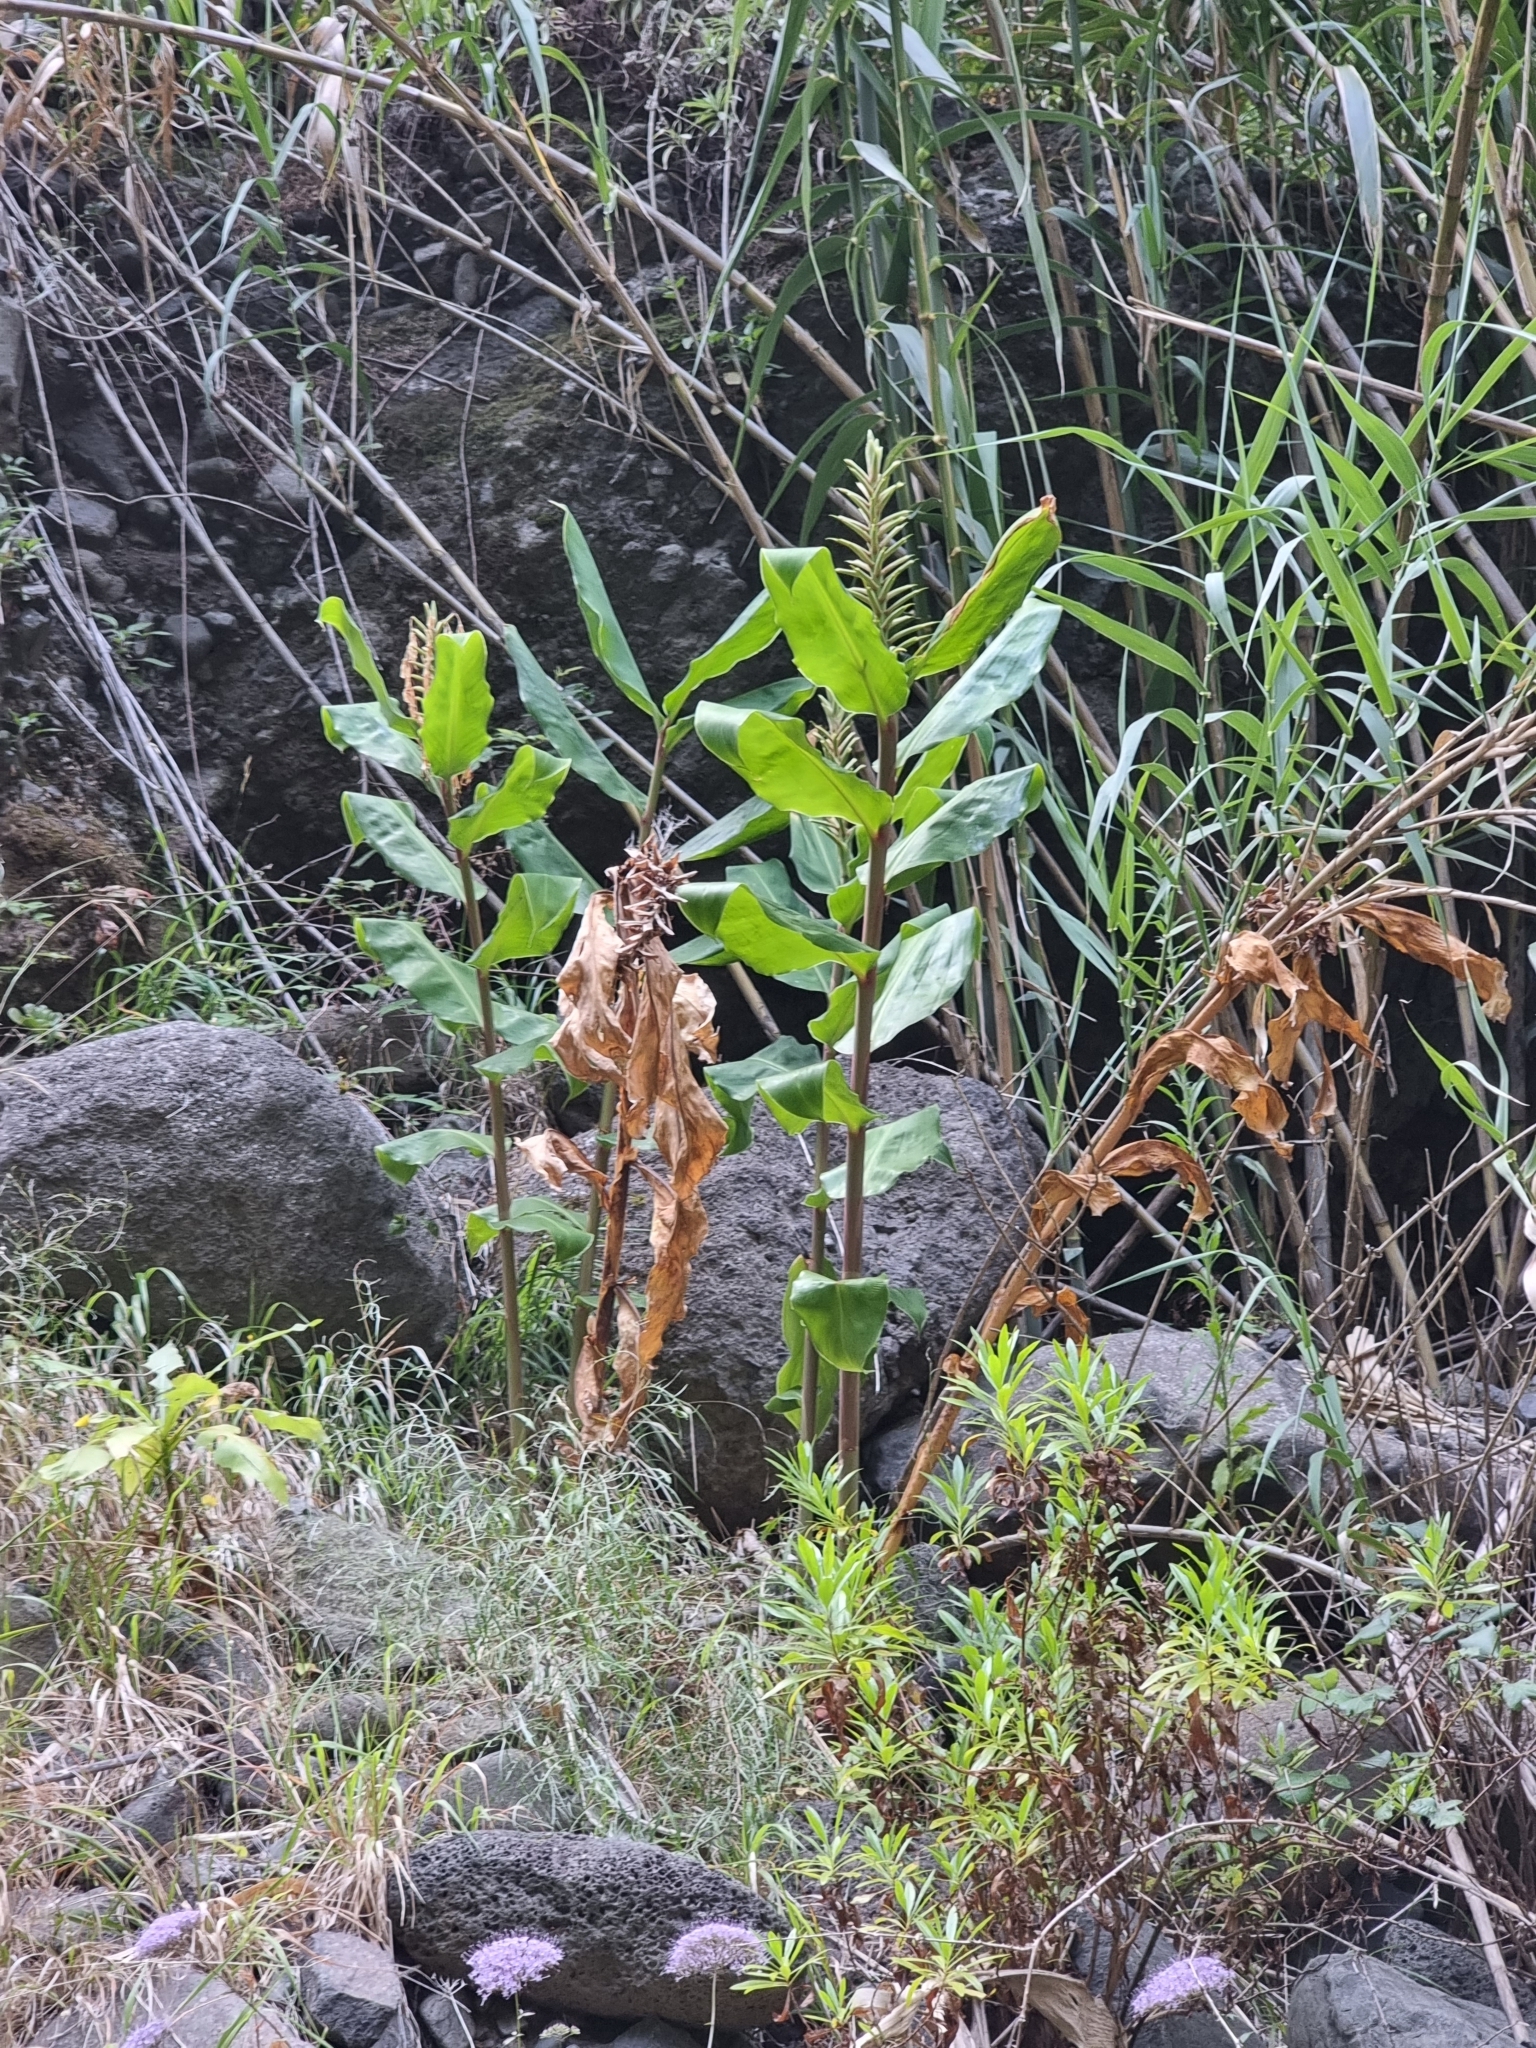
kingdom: Plantae
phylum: Tracheophyta
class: Liliopsida
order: Zingiberales
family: Zingiberaceae
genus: Hedychium
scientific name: Hedychium gardnerianum
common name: Himalayan ginger
